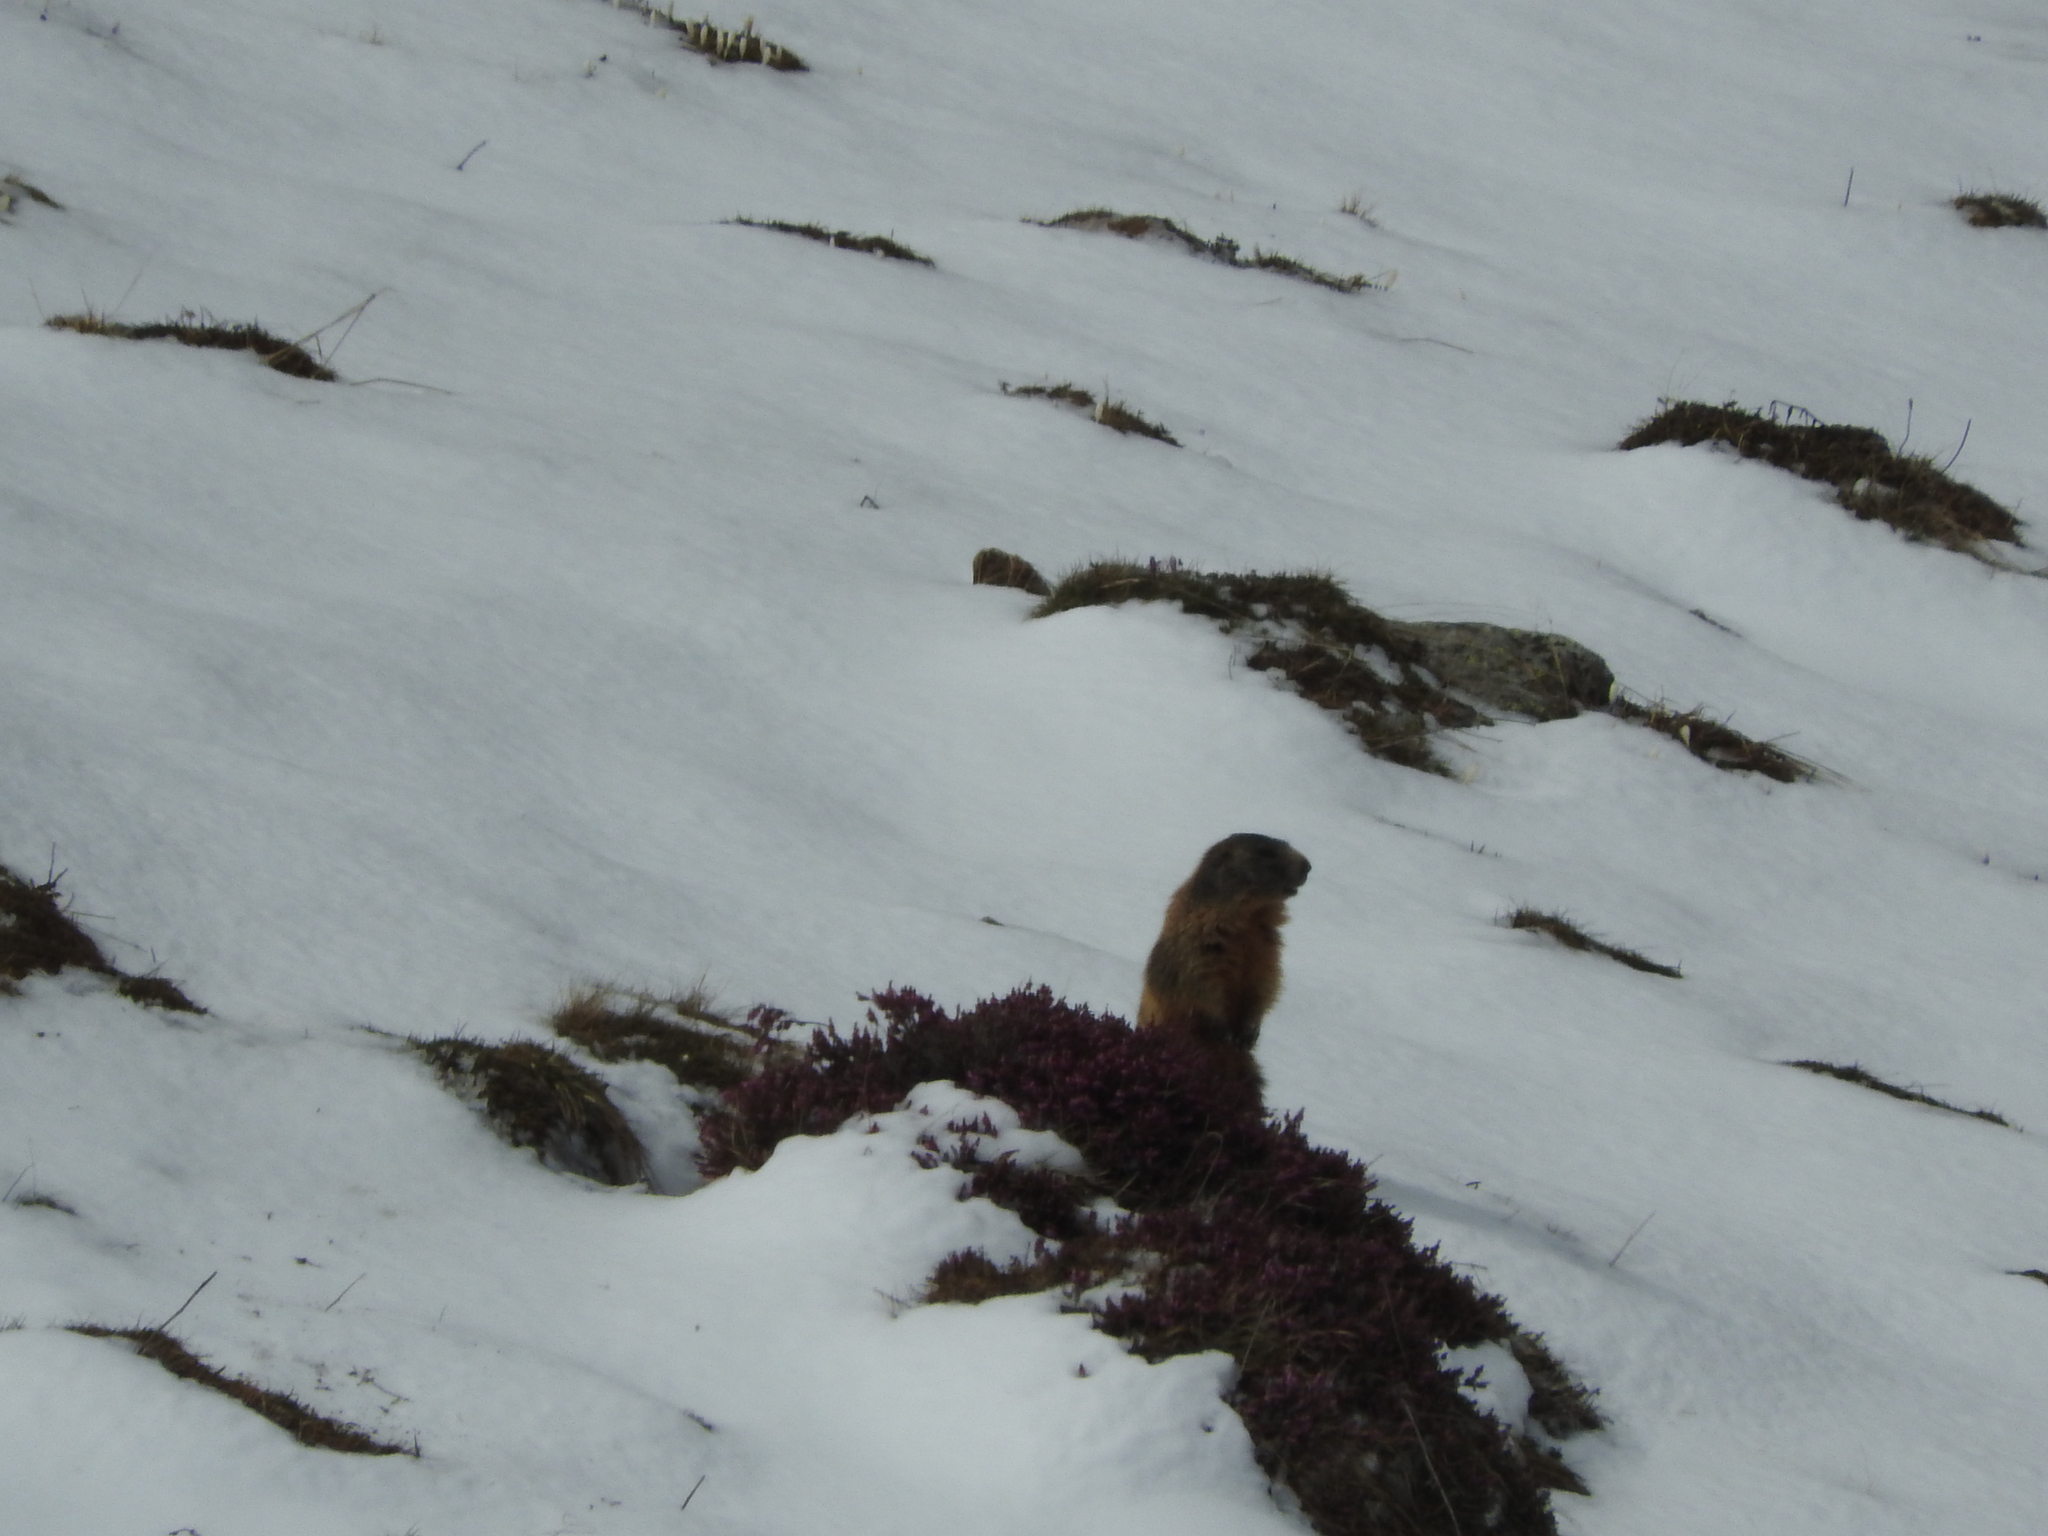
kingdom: Animalia
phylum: Chordata
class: Mammalia
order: Rodentia
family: Sciuridae
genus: Marmota
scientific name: Marmota marmota
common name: Alpine marmot
